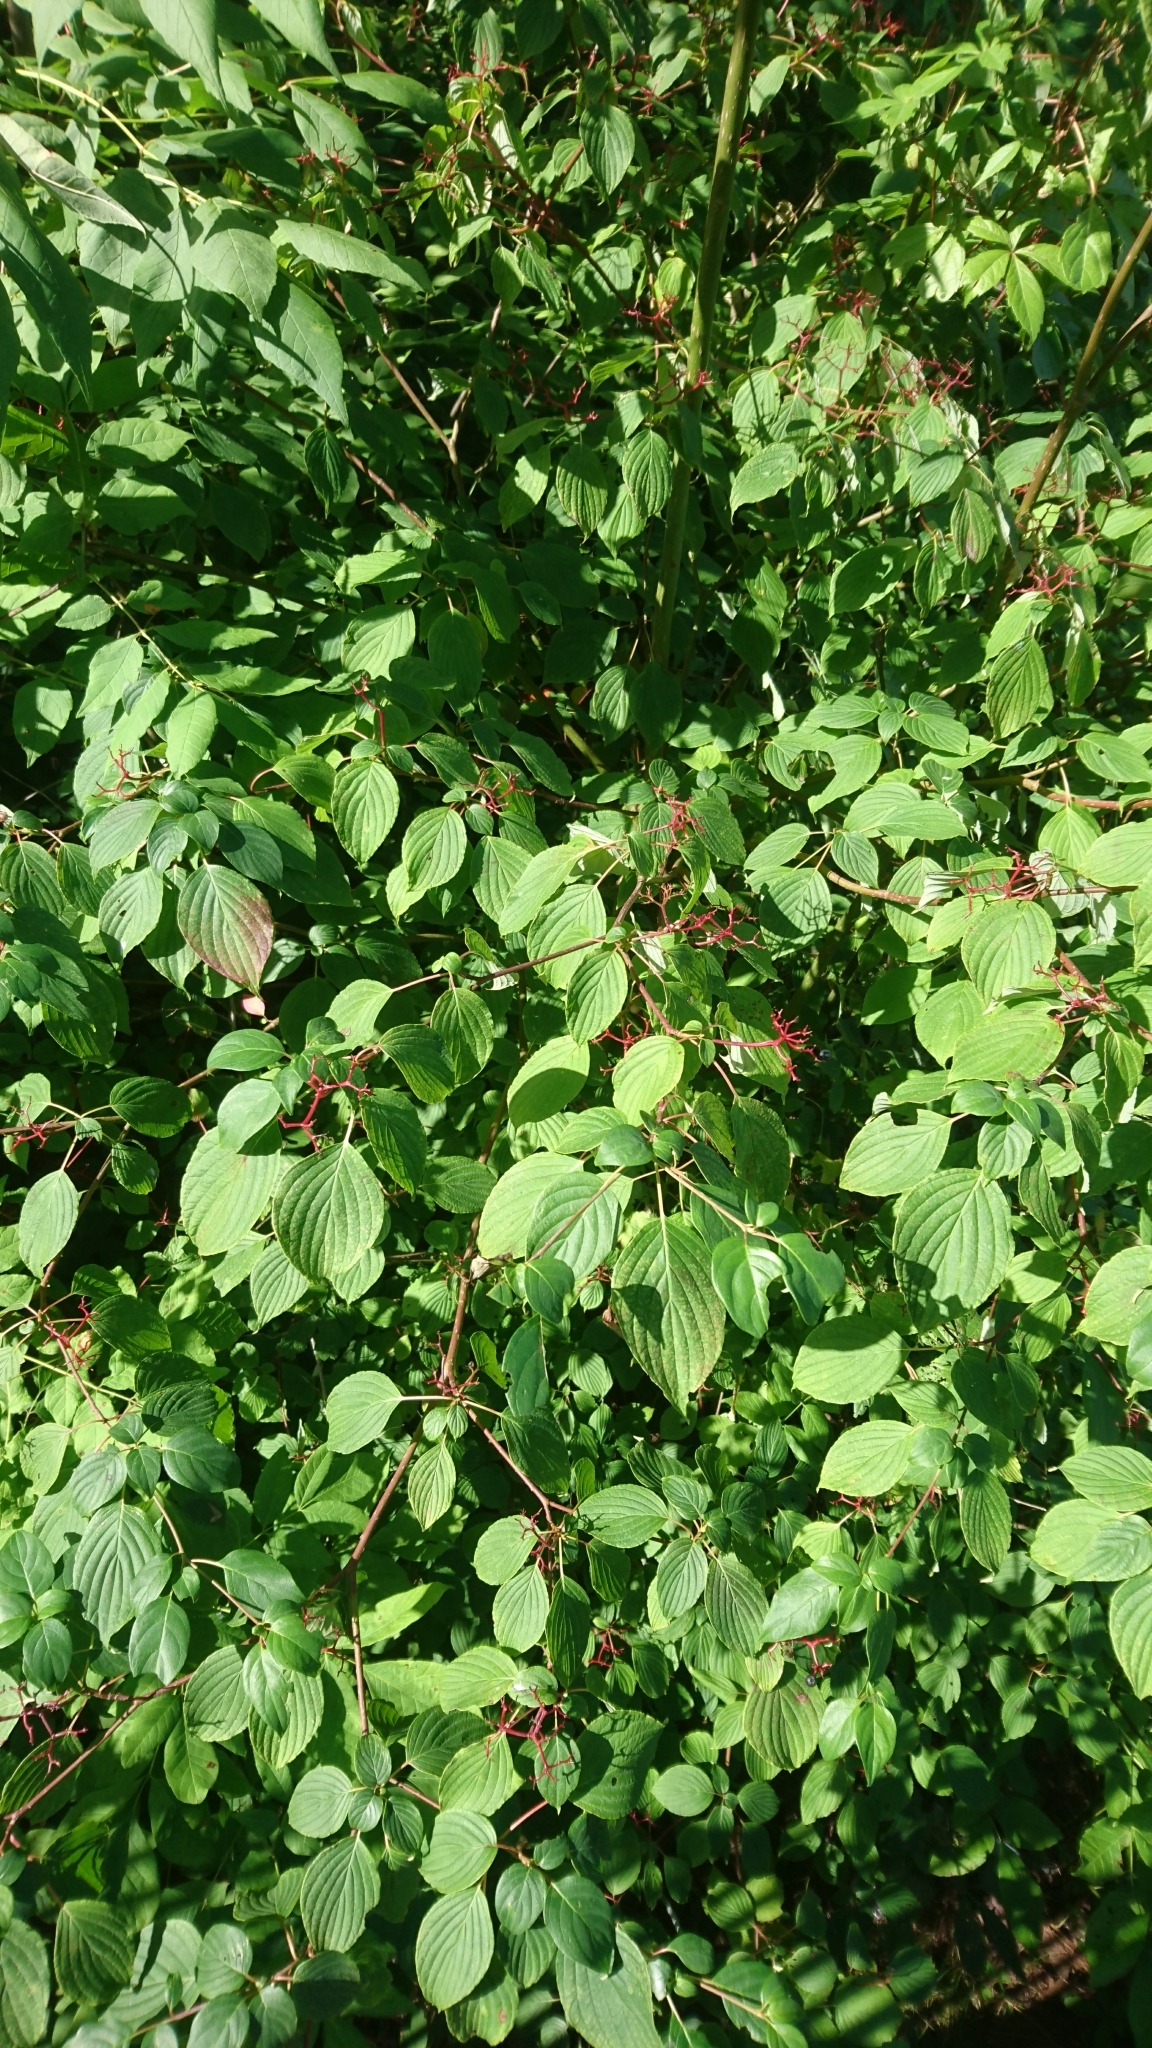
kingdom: Plantae
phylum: Tracheophyta
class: Magnoliopsida
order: Cornales
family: Cornaceae
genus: Cornus
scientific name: Cornus alternifolia
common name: Pagoda dogwood
